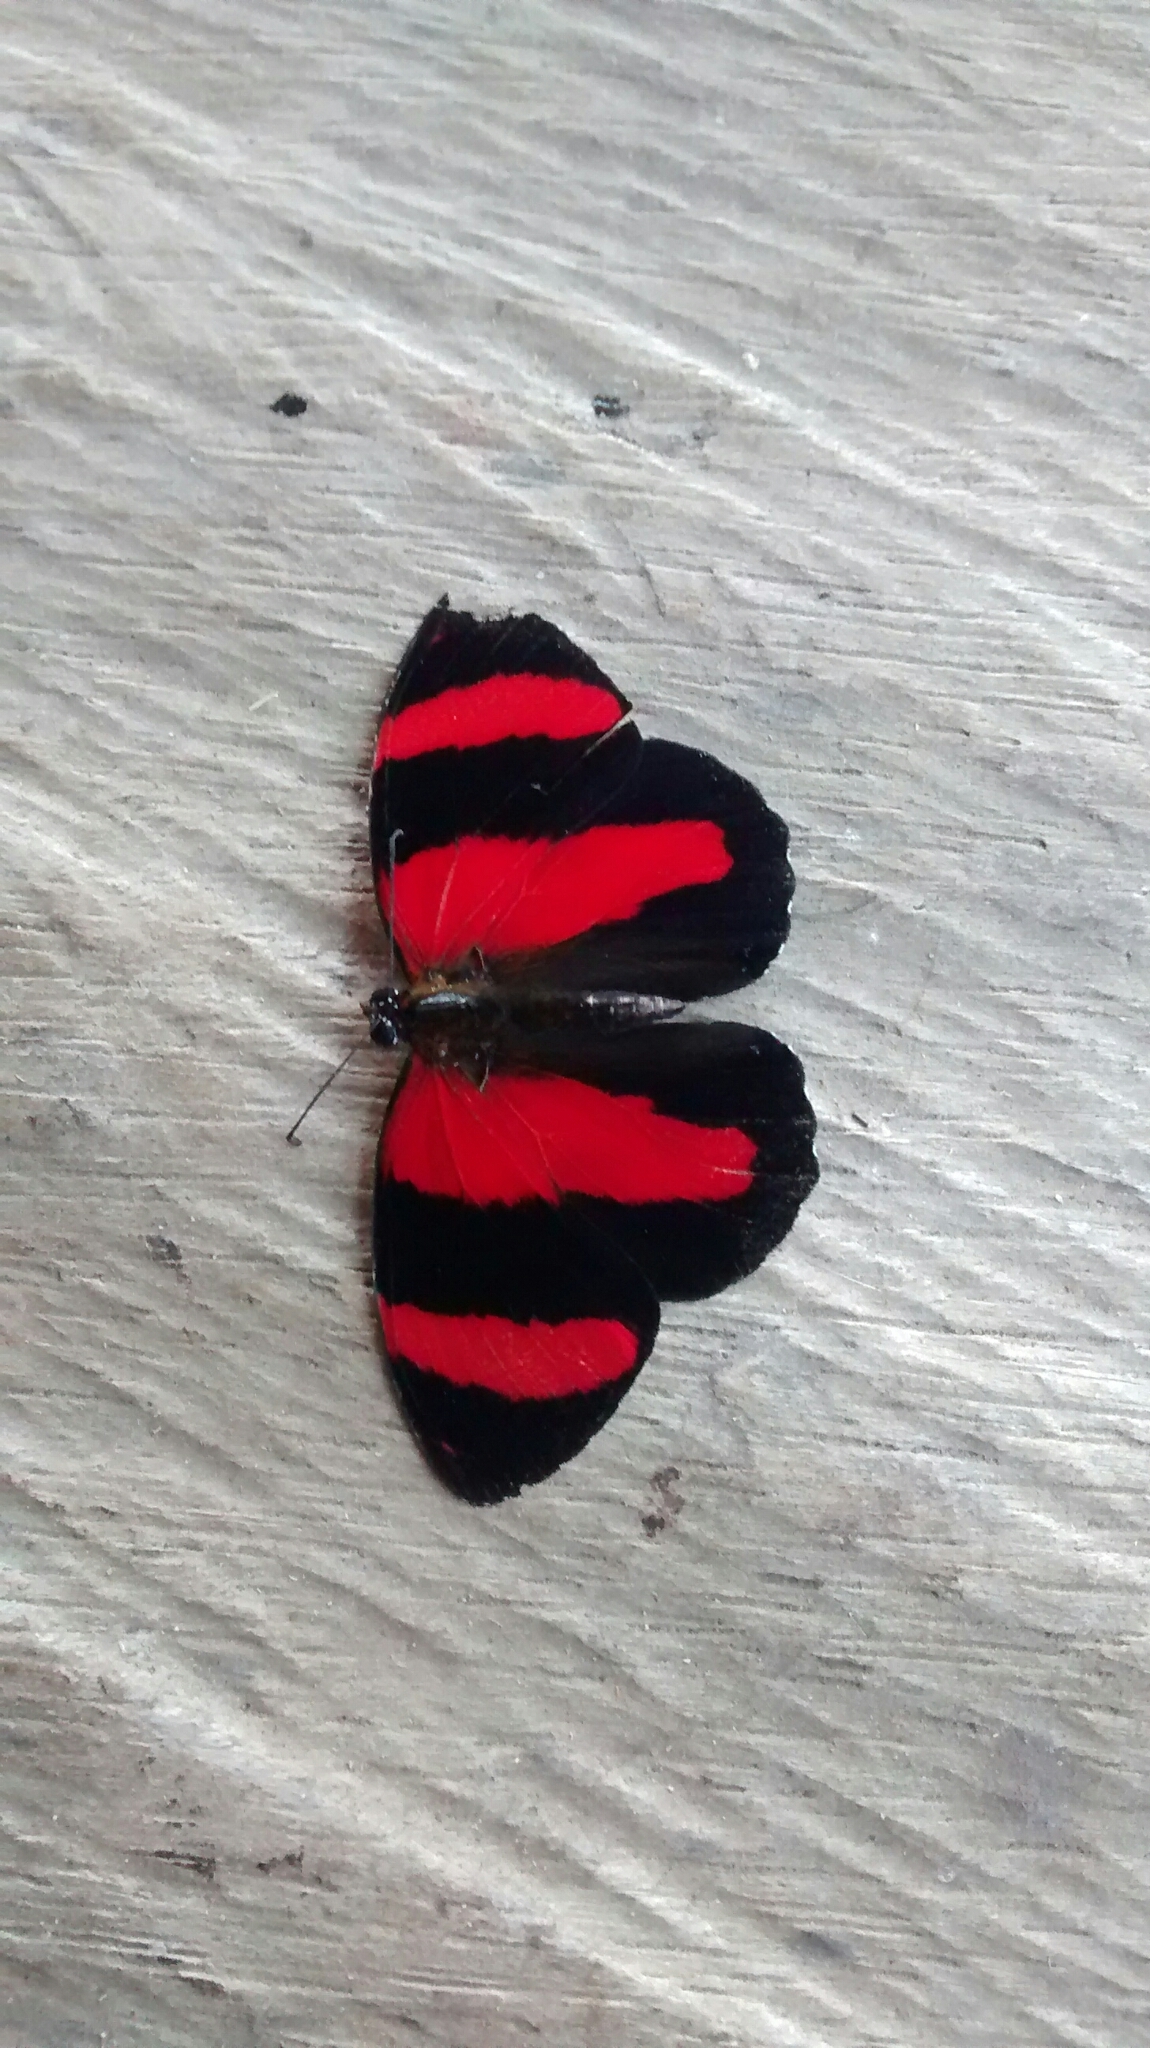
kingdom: Animalia
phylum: Arthropoda
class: Insecta
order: Lepidoptera
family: Nymphalidae
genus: Catagramma
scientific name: Catagramma Callicore pitheas
